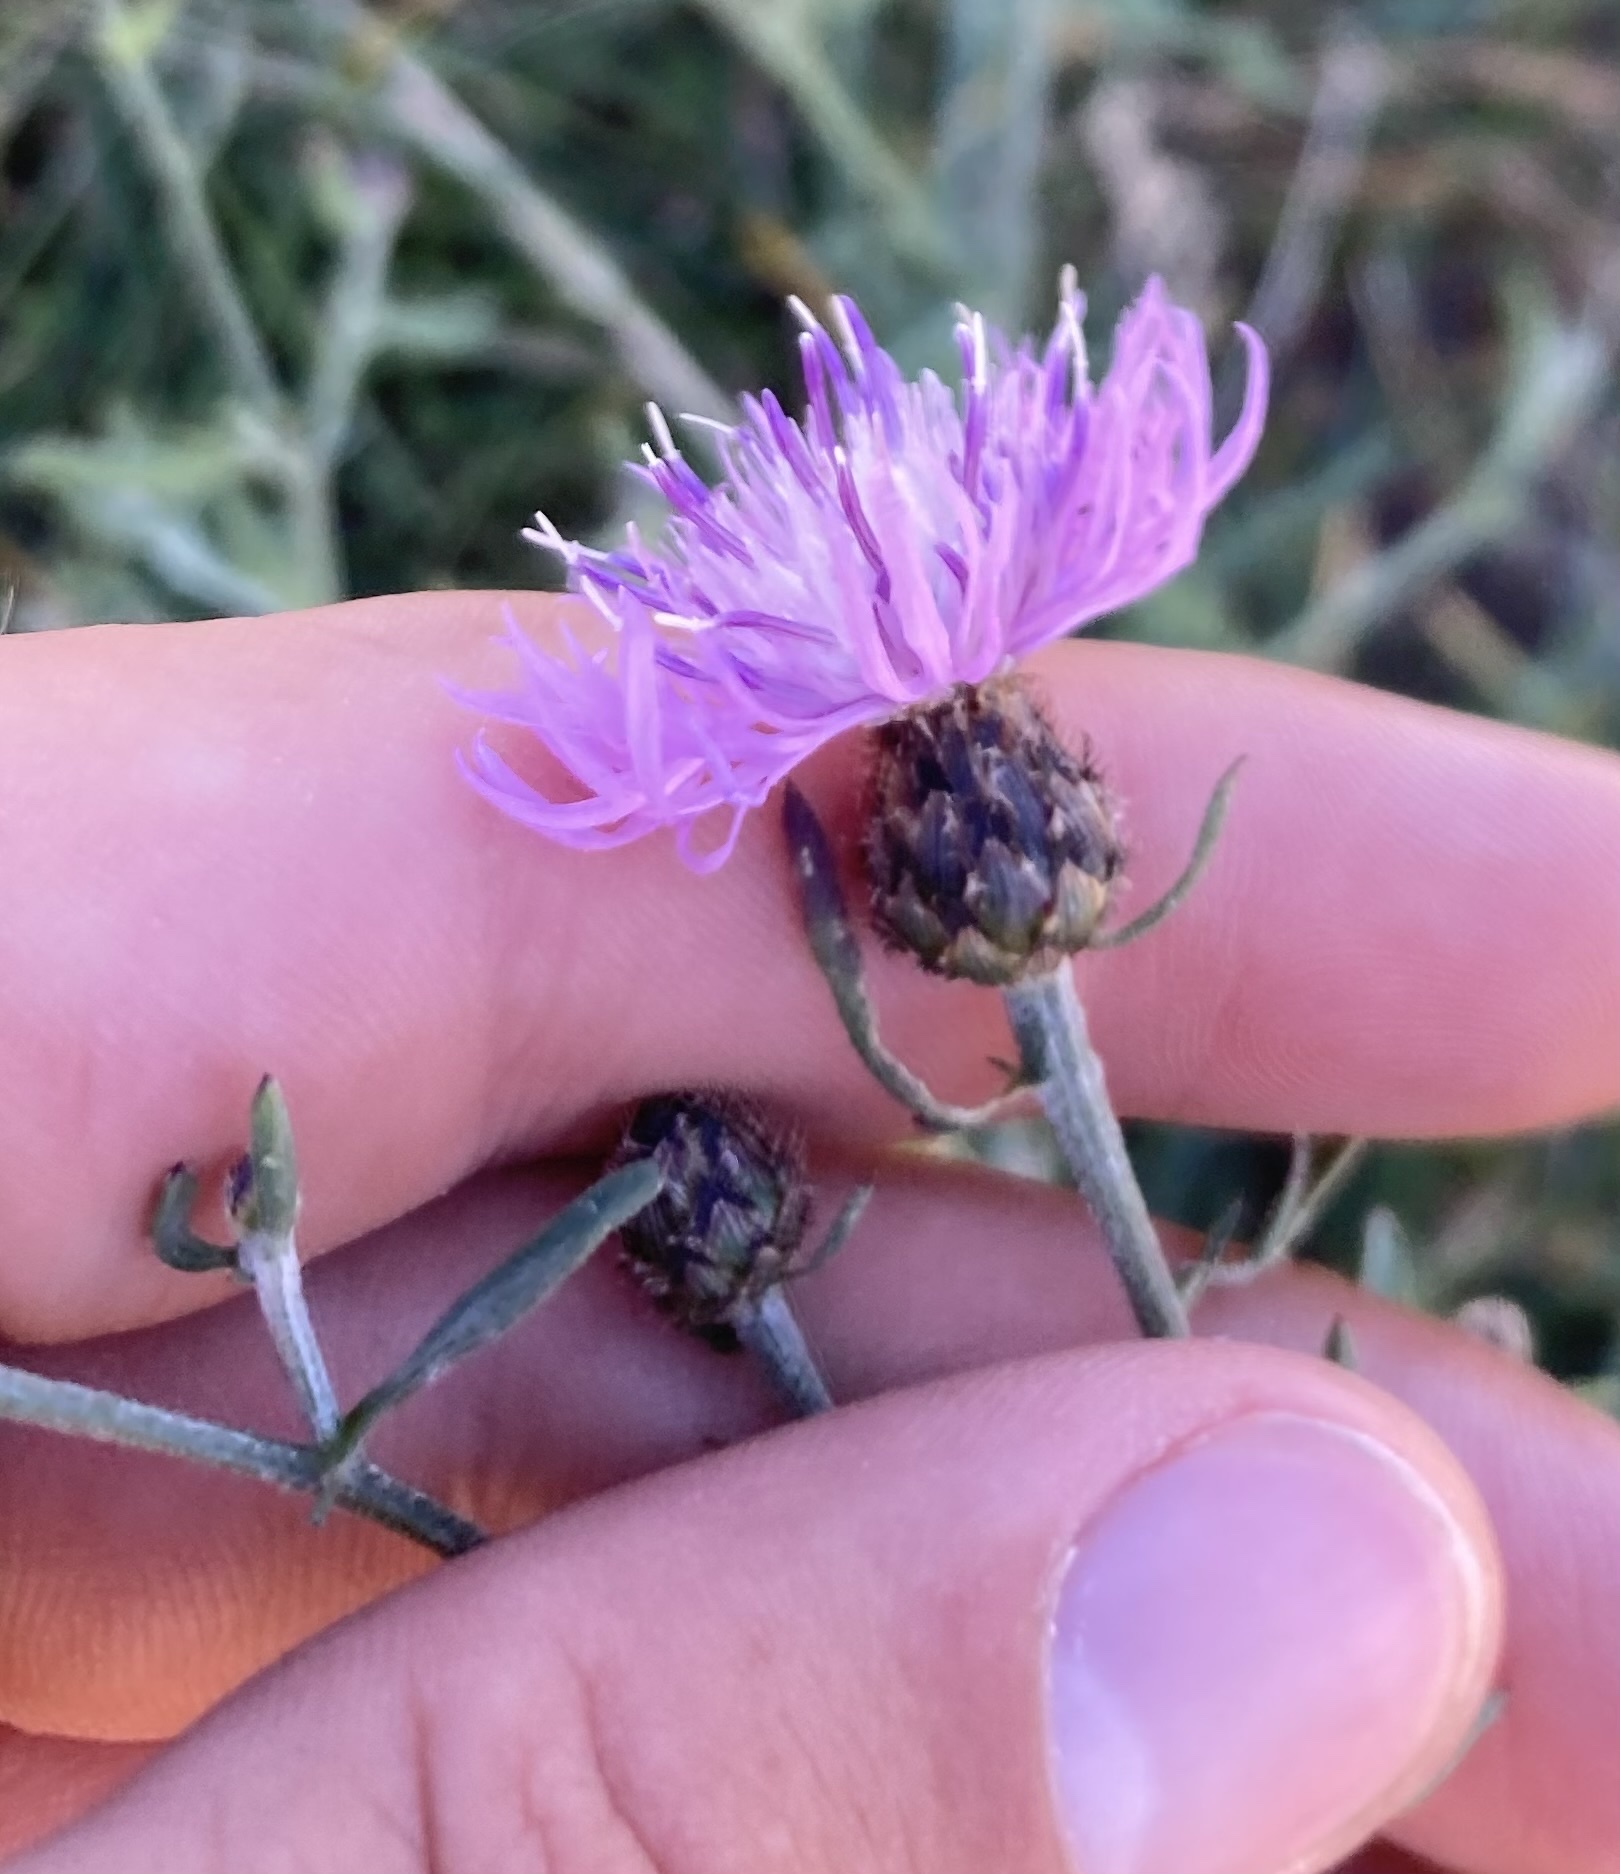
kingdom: Plantae
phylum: Tracheophyta
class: Magnoliopsida
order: Asterales
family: Asteraceae
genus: Centaurea
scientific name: Centaurea stoebe
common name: Spotted knapweed
